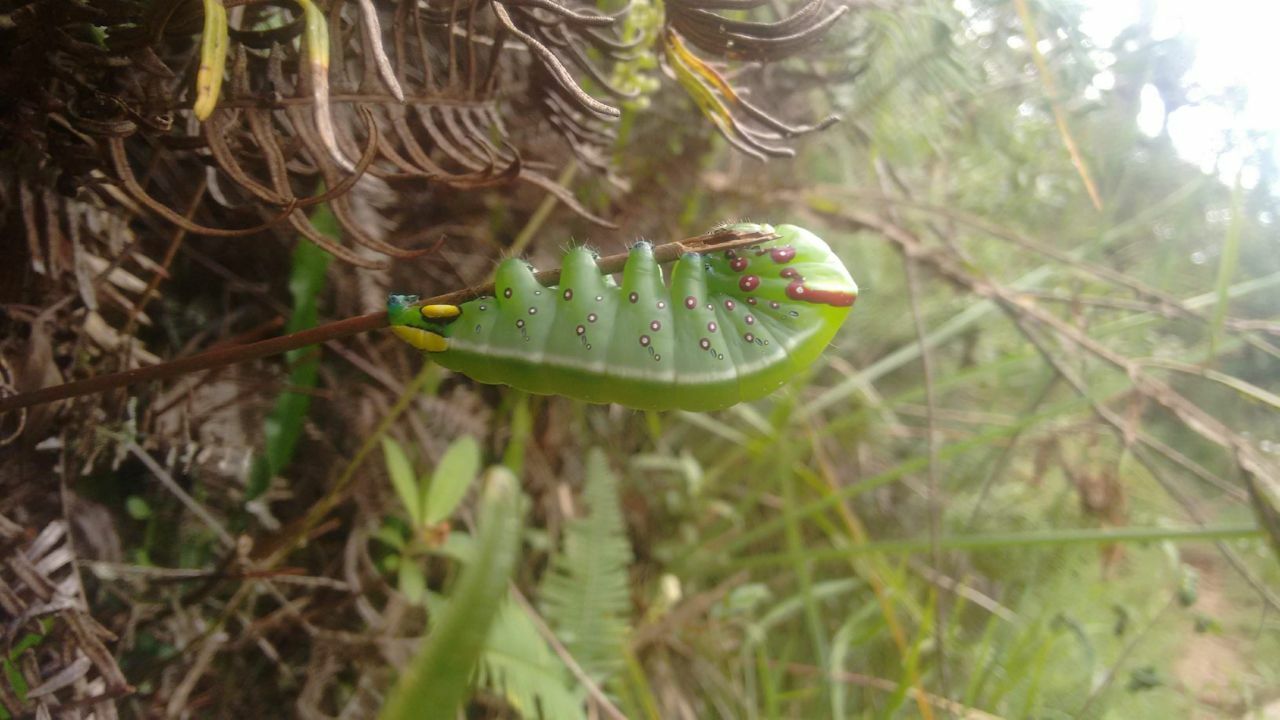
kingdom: Animalia
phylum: Arthropoda
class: Insecta
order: Lepidoptera
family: Notodontidae
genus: Anurocampa
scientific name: Anurocampa mingens
